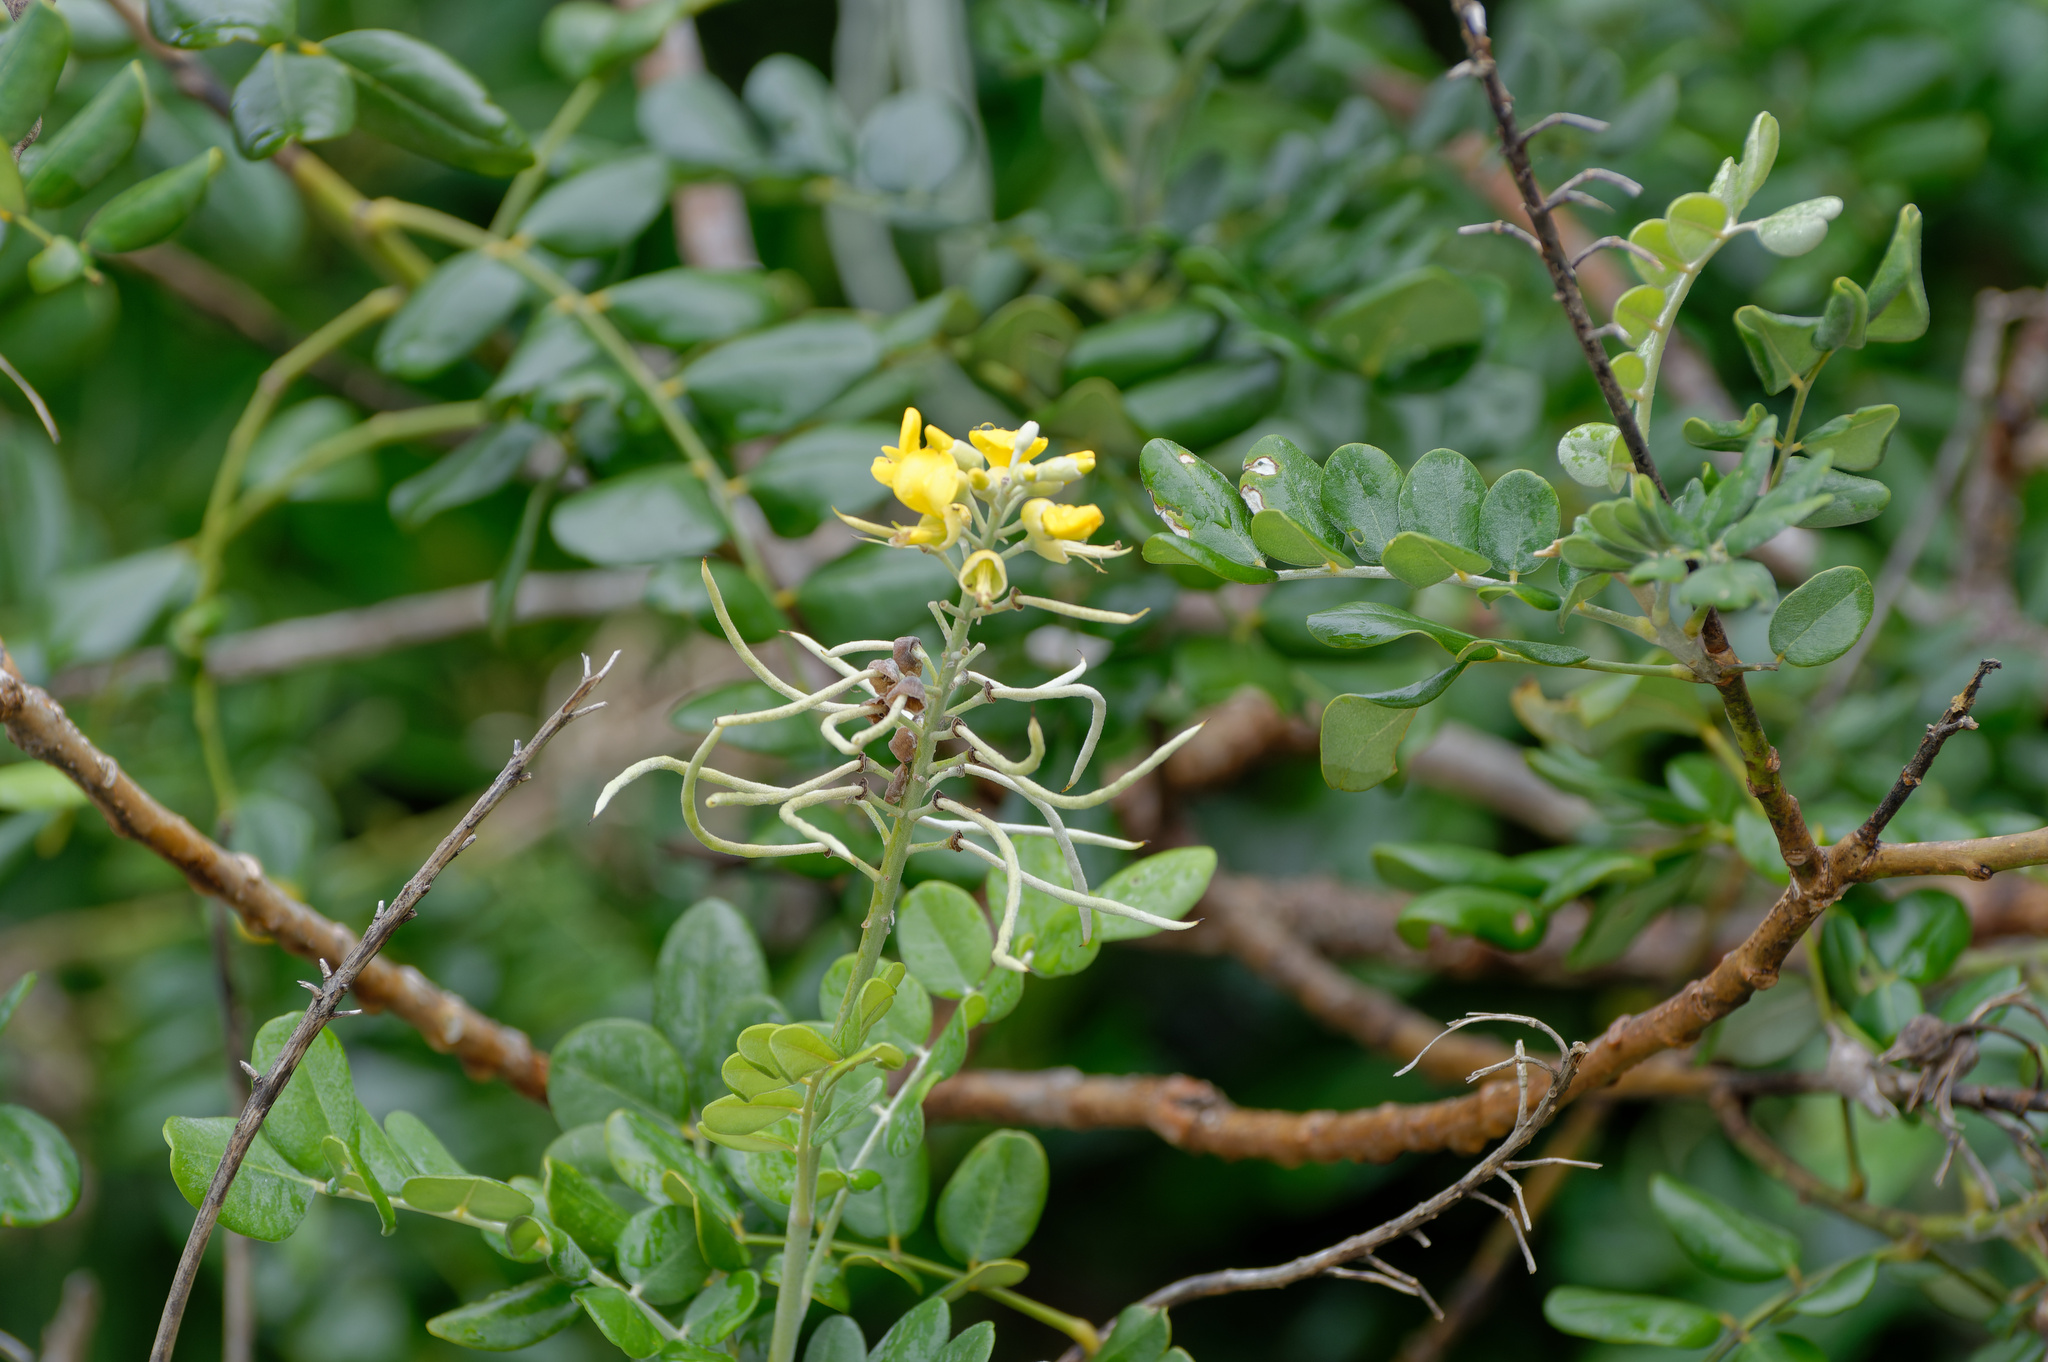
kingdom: Plantae
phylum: Tracheophyta
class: Magnoliopsida
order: Fabales
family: Fabaceae
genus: Sophora
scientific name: Sophora tomentosa
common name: Yellow necklacepod
